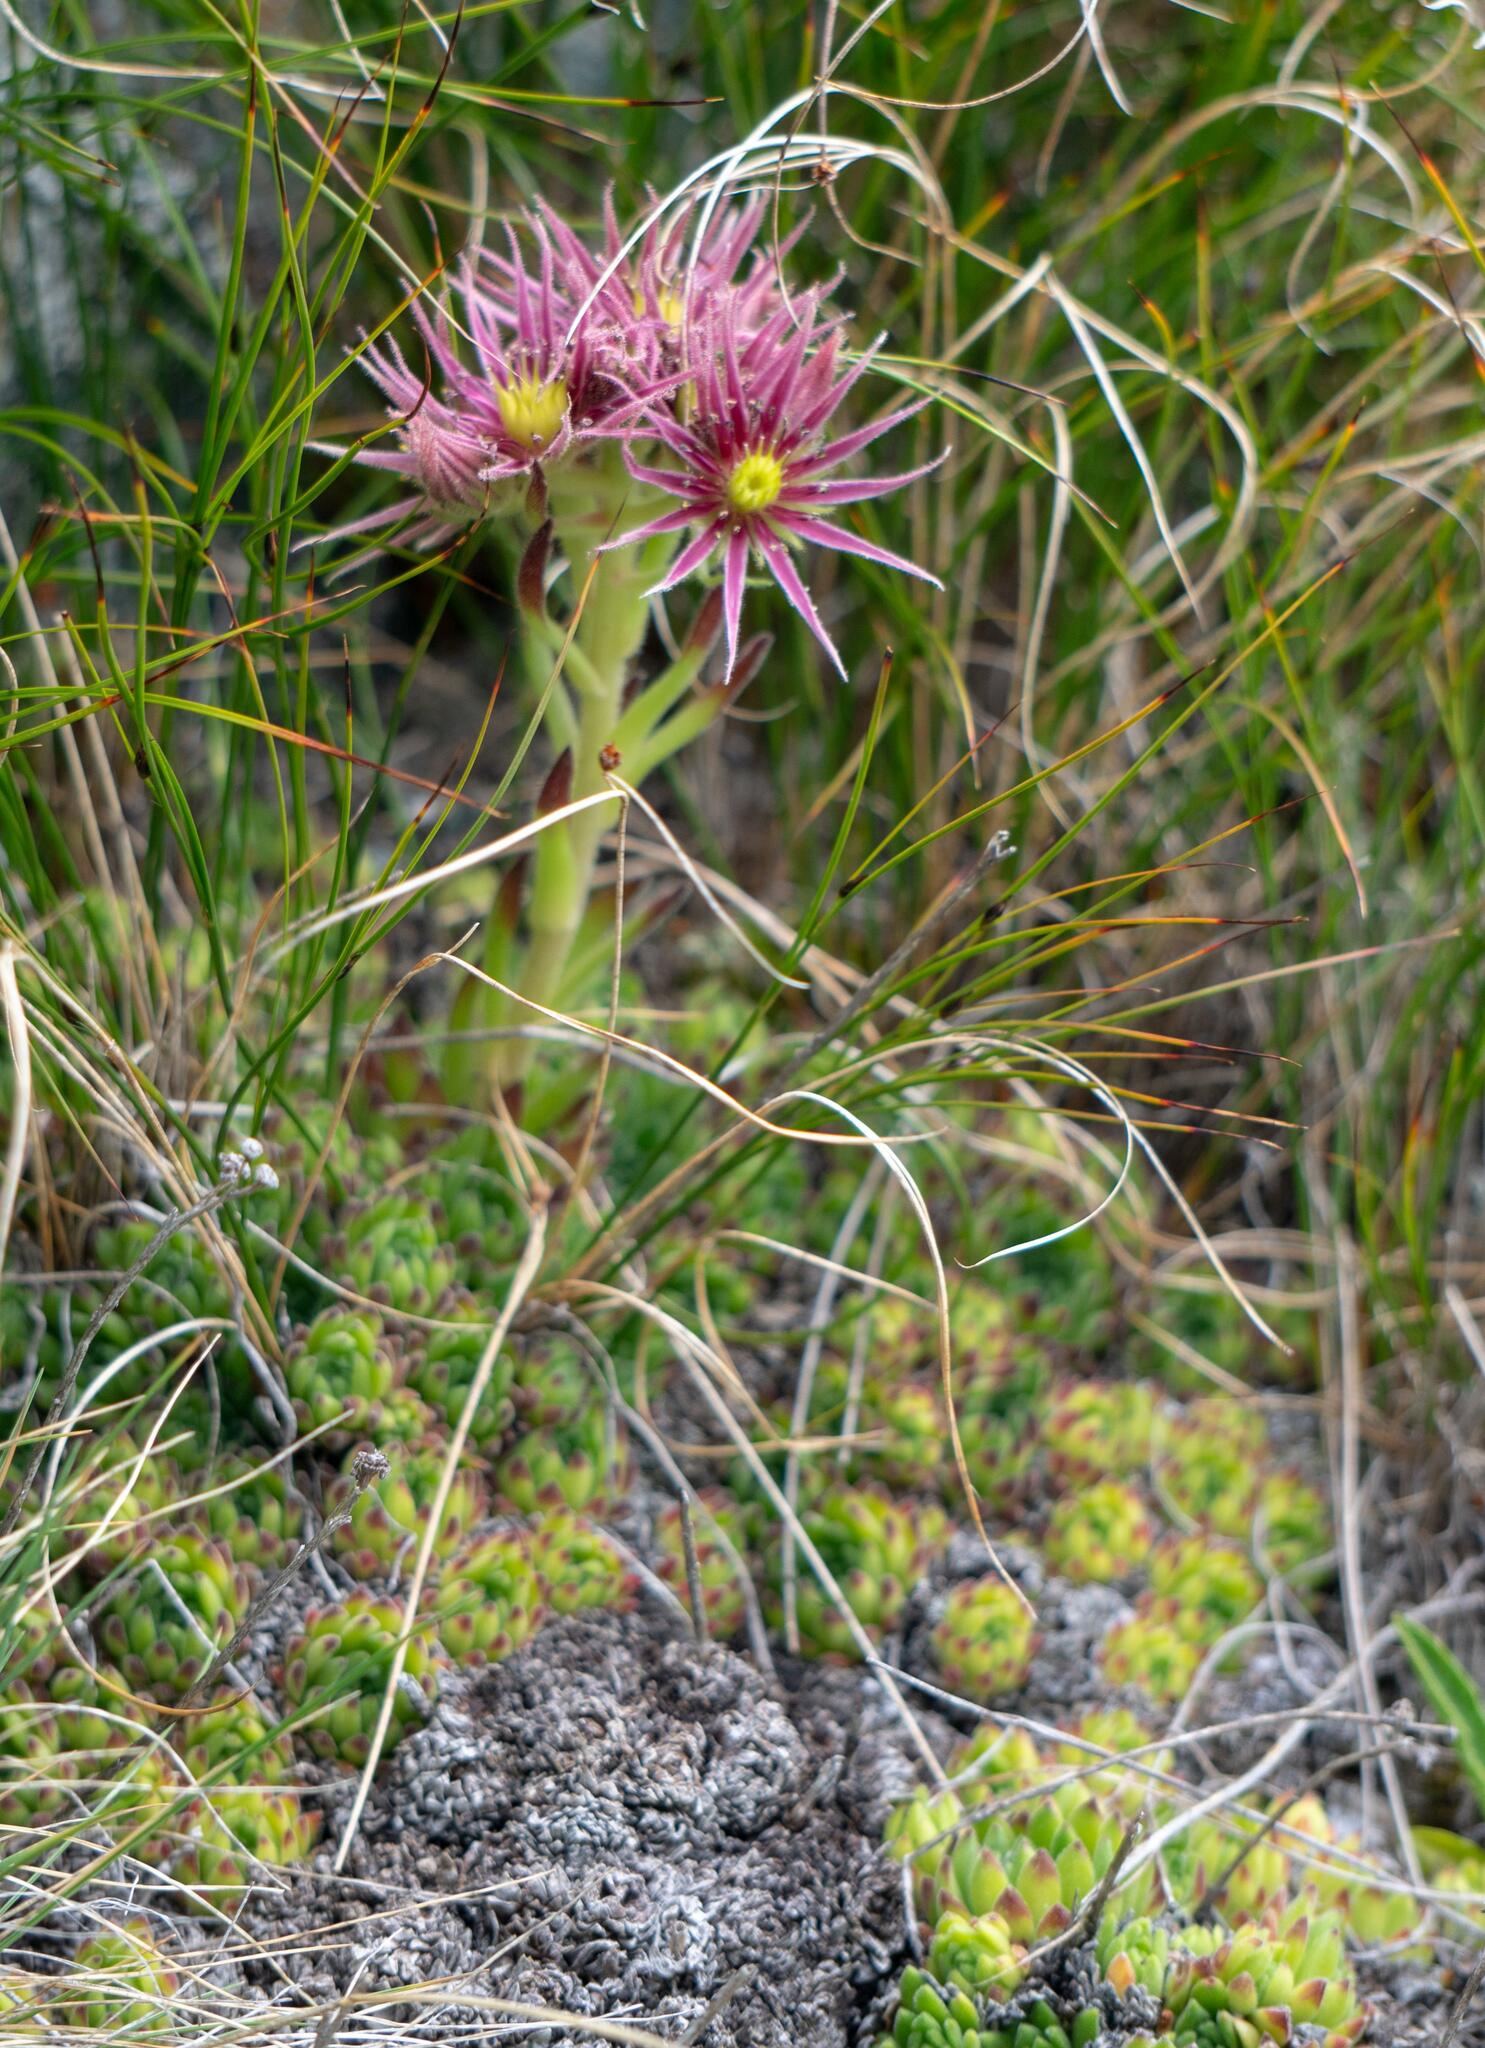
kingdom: Plantae
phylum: Tracheophyta
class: Magnoliopsida
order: Saxifragales
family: Crassulaceae
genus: Sempervivum
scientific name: Sempervivum montanum
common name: Mountain house-leek
